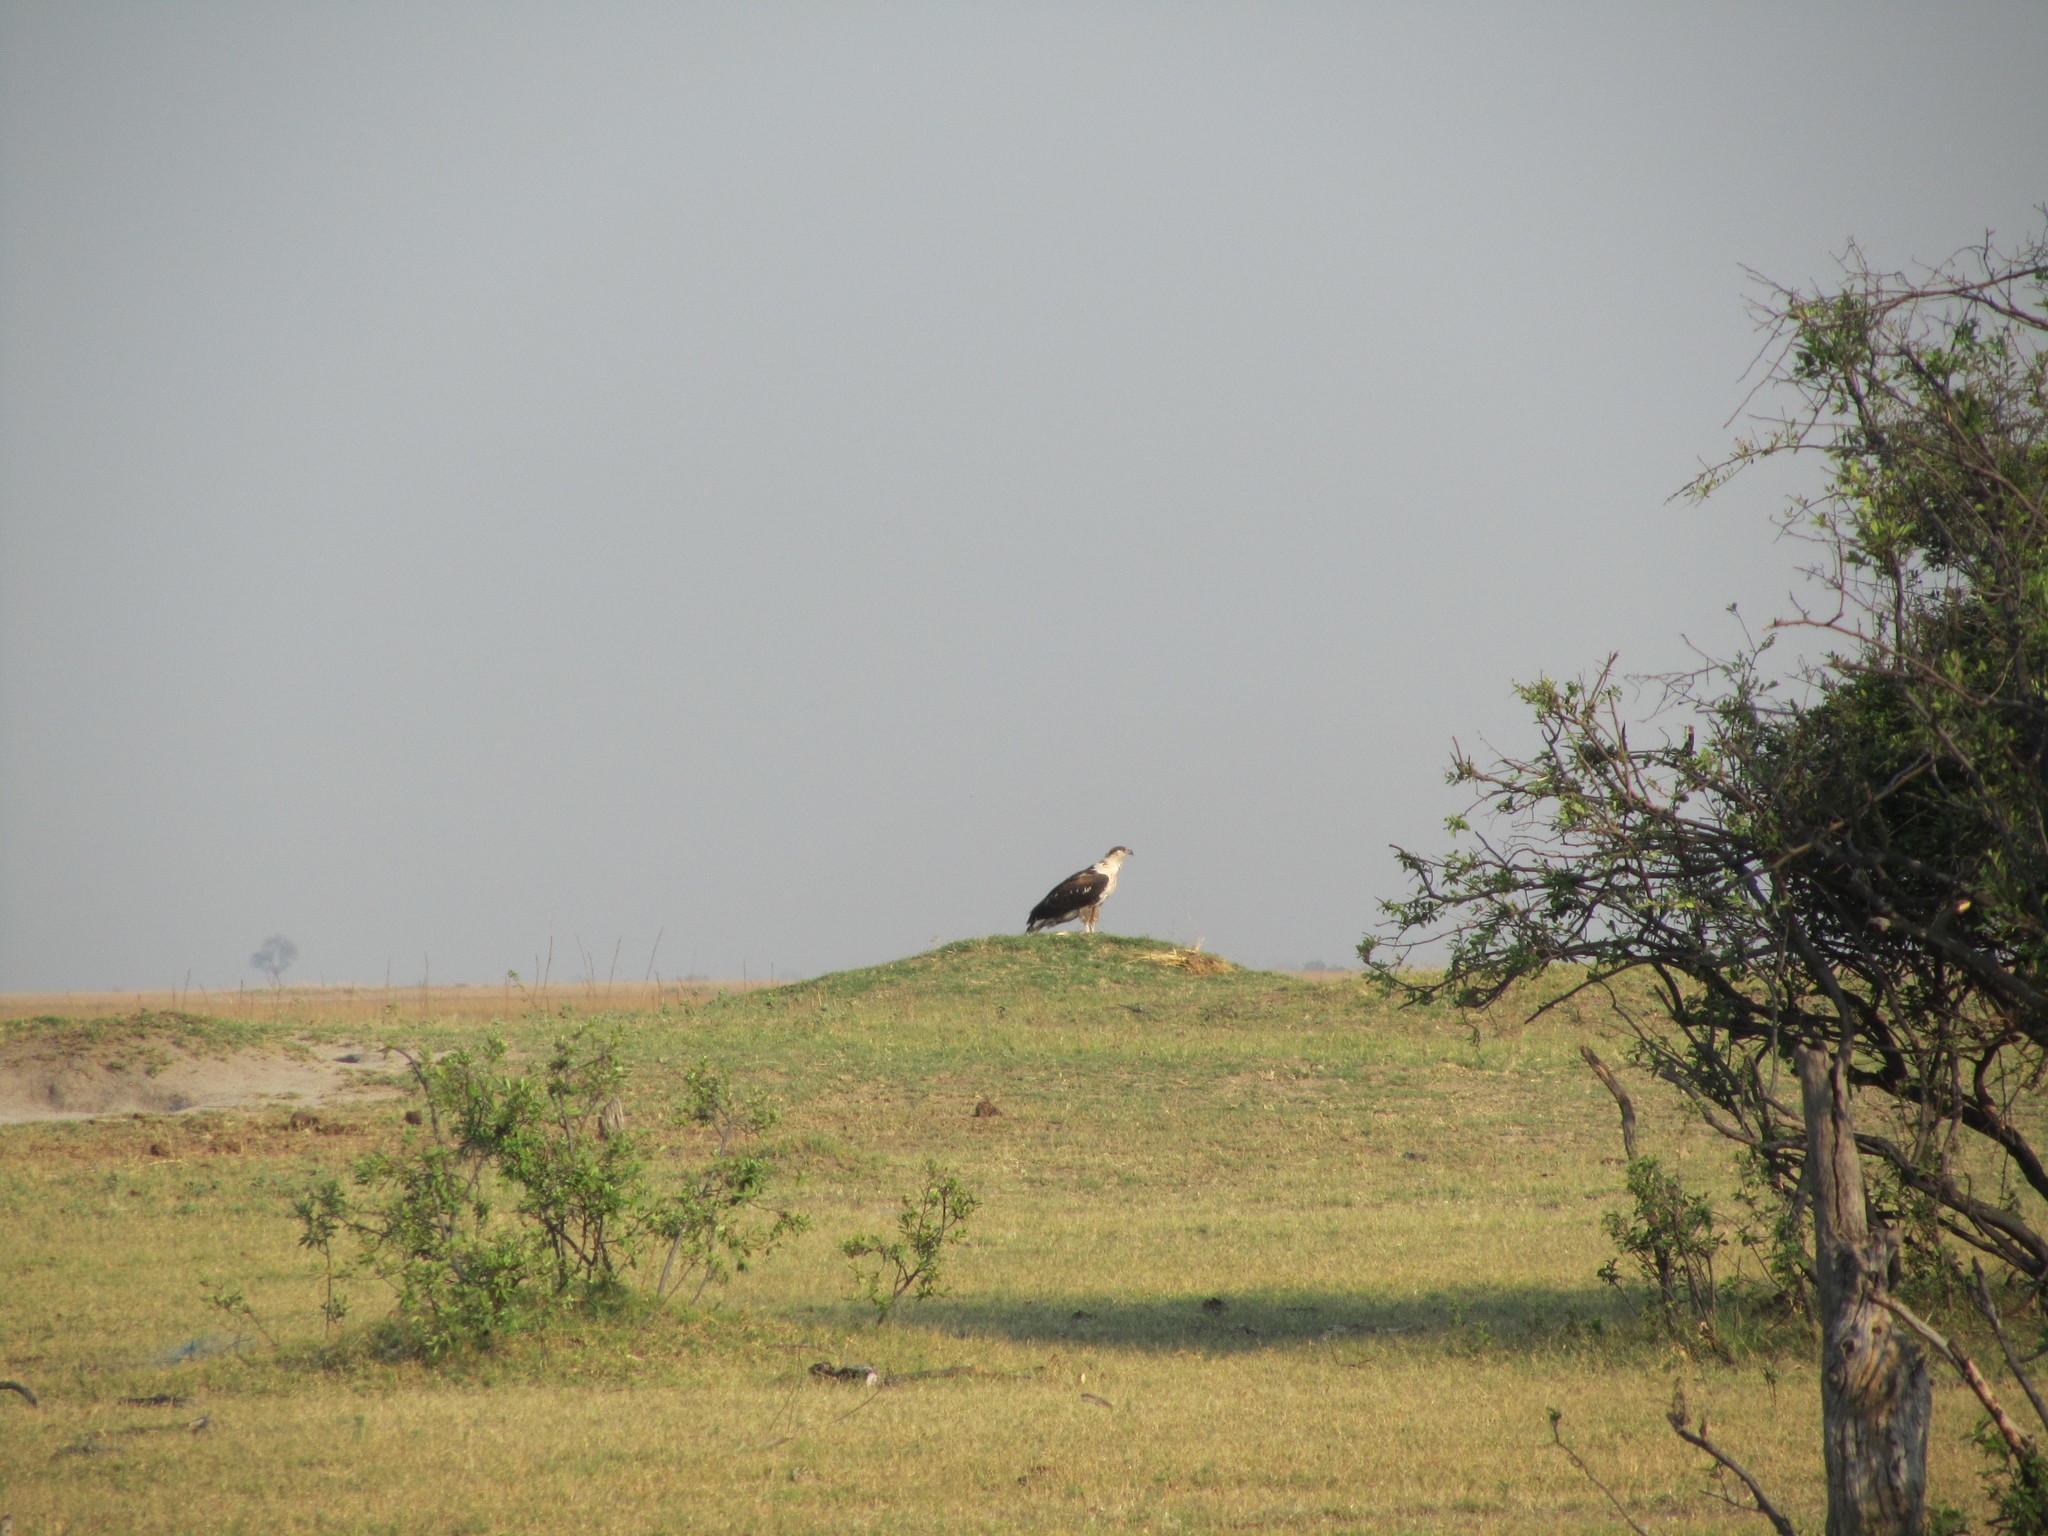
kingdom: Animalia
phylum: Chordata
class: Aves
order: Accipitriformes
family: Accipitridae
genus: Haliaeetus
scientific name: Haliaeetus vocifer
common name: African fish eagle
